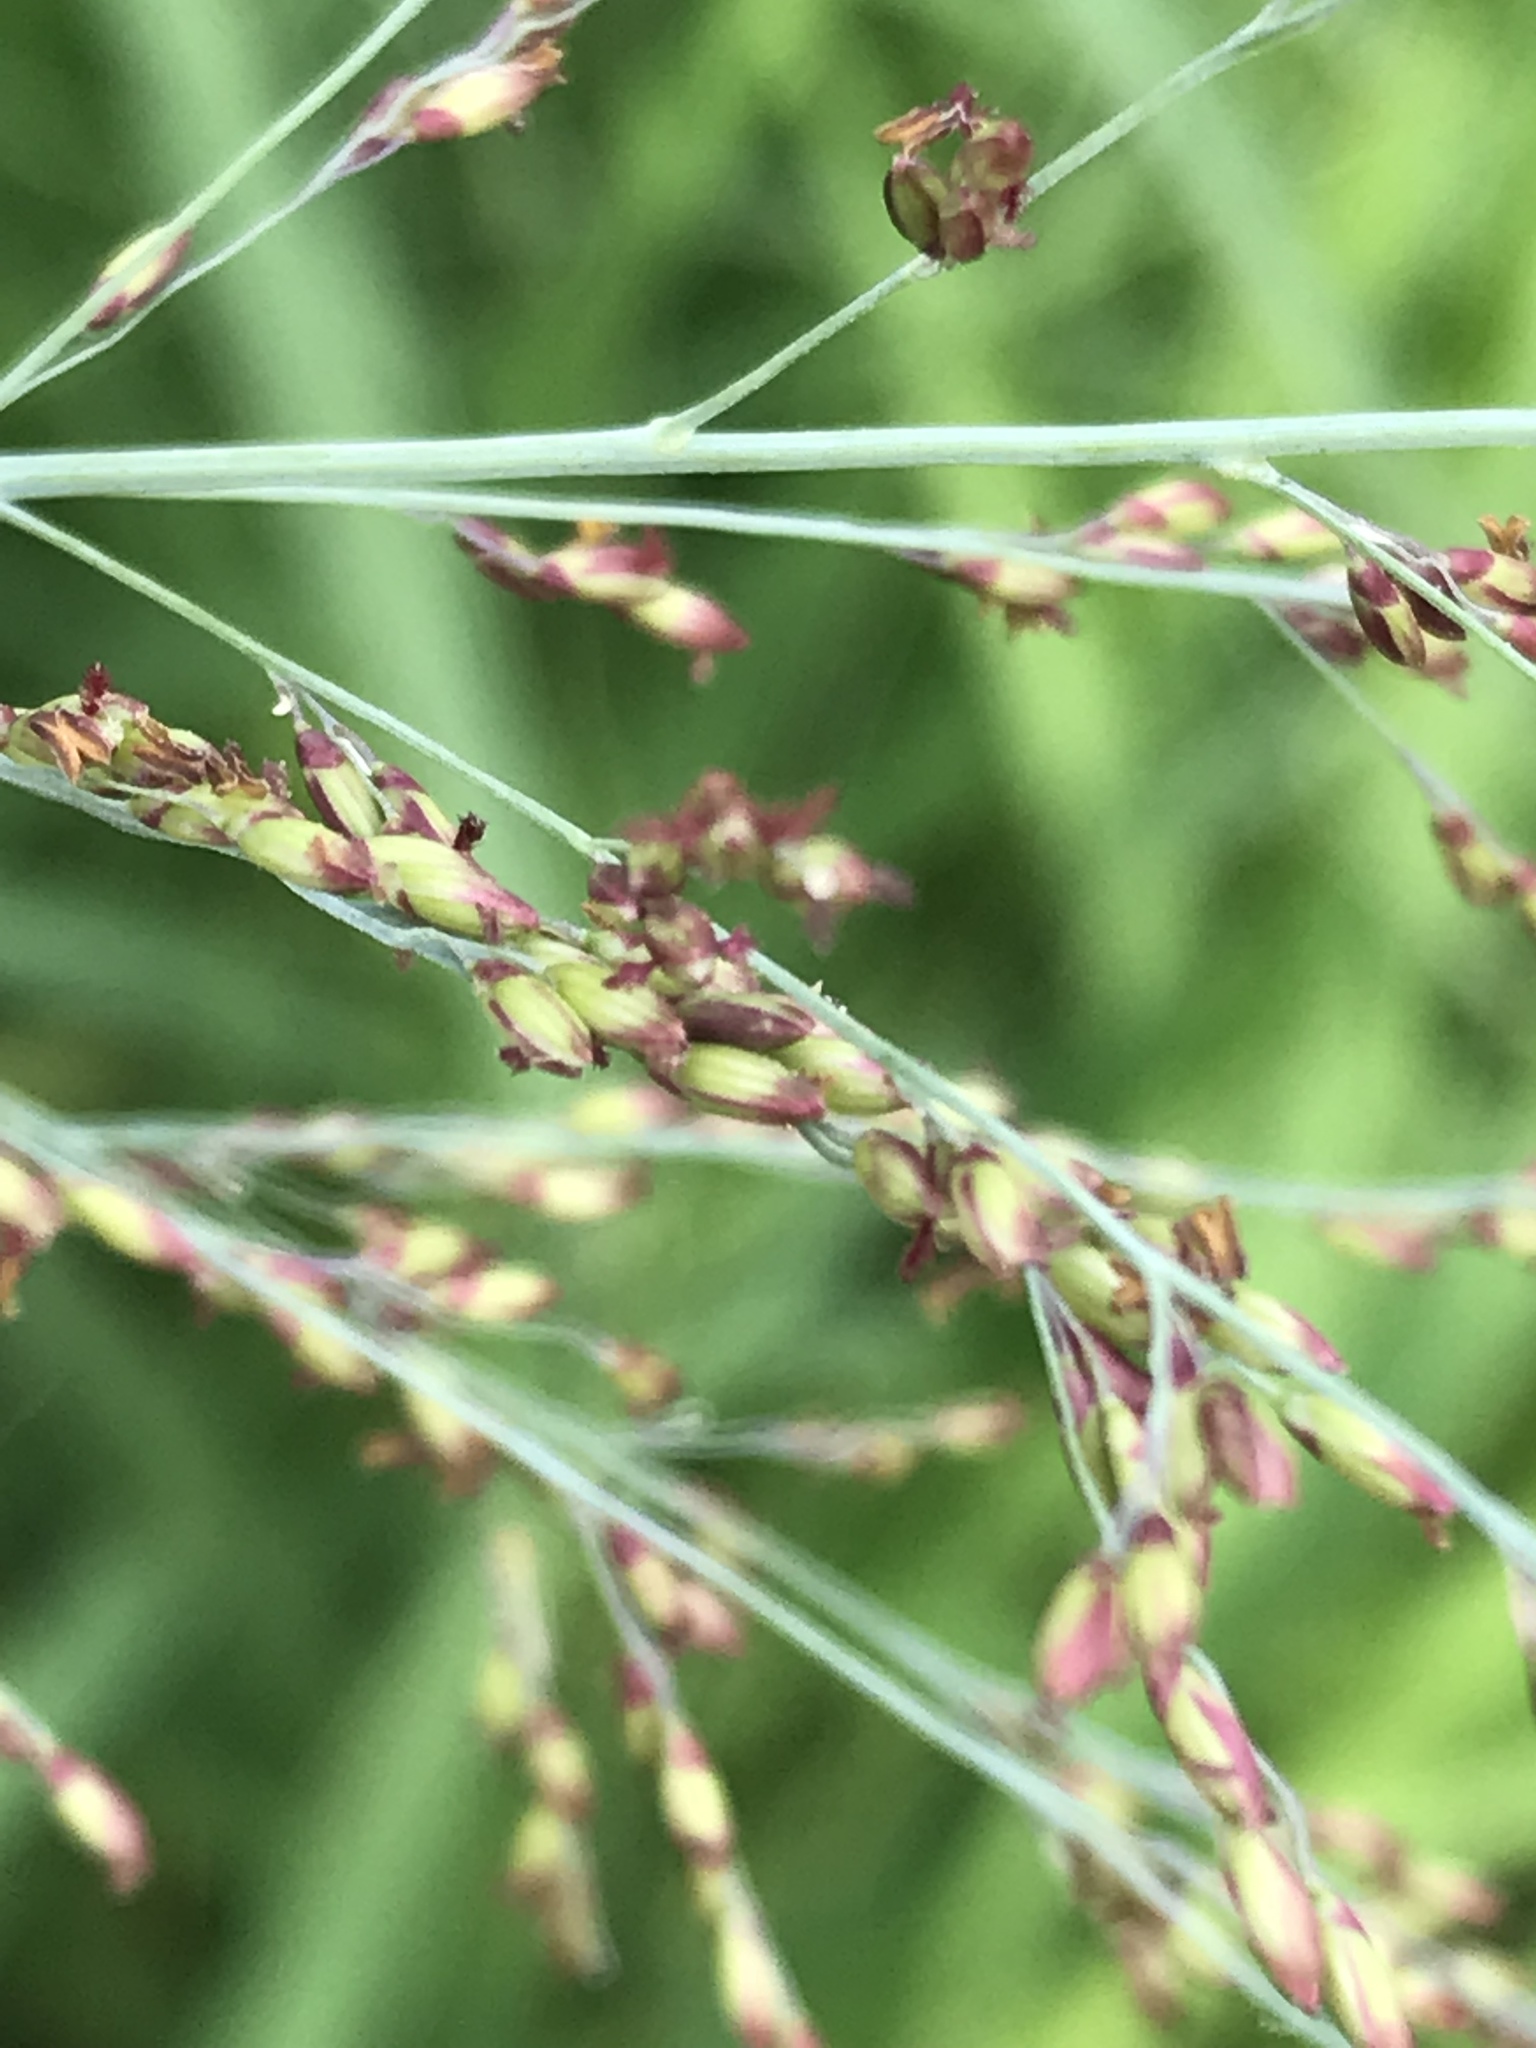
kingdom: Plantae
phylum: Tracheophyta
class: Liliopsida
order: Poales
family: Poaceae
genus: Megathyrsus
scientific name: Megathyrsus maximus
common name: Guineagrass
